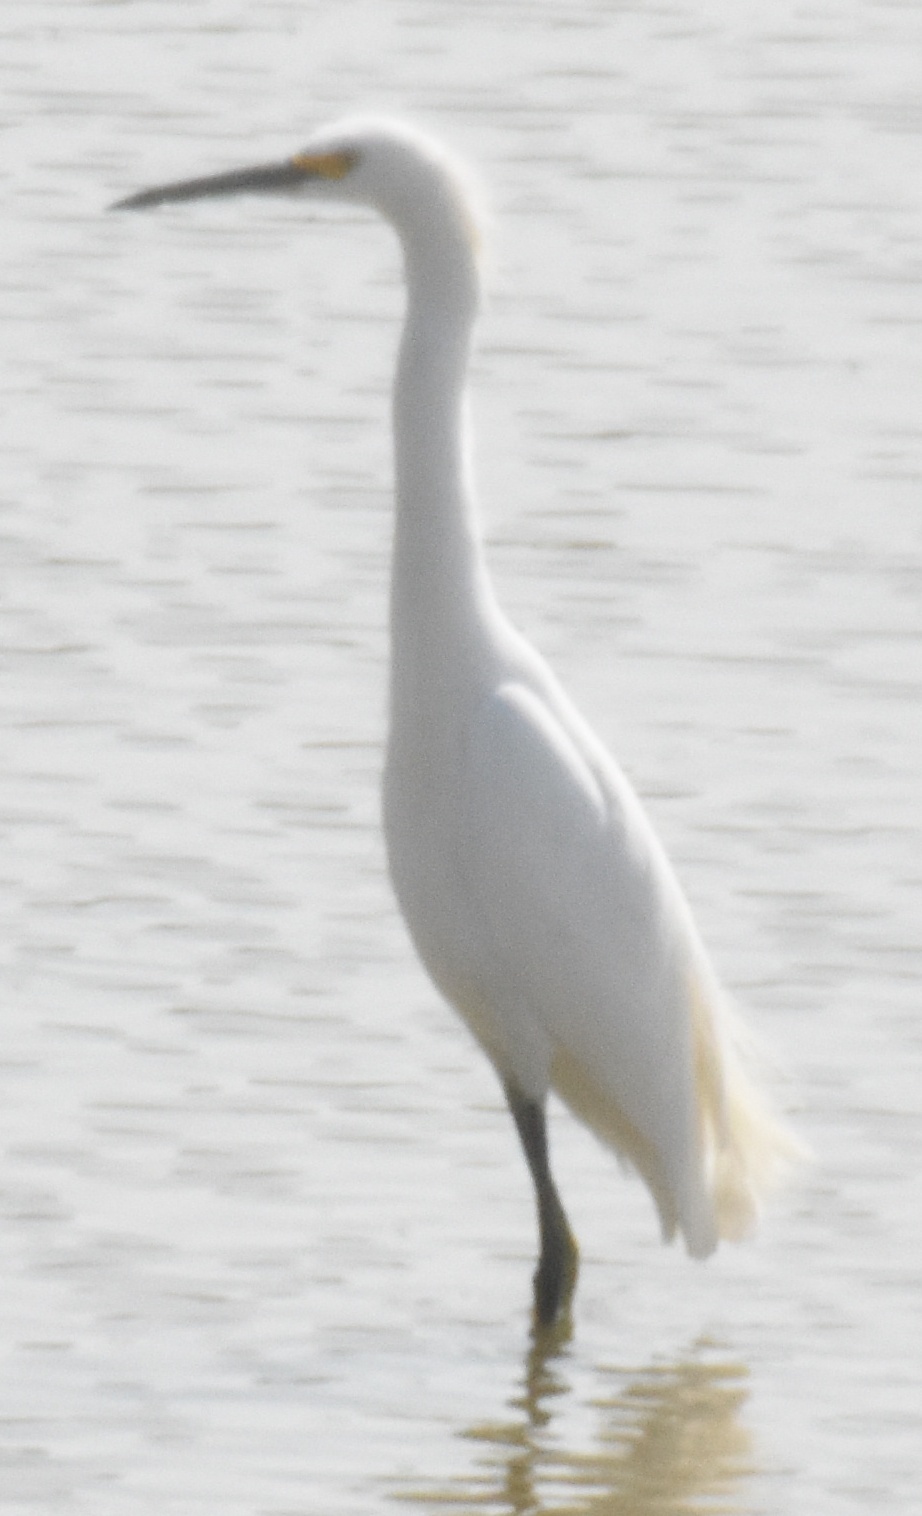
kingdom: Animalia
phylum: Chordata
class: Aves
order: Pelecaniformes
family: Ardeidae
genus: Egretta
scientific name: Egretta thula
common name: Snowy egret
